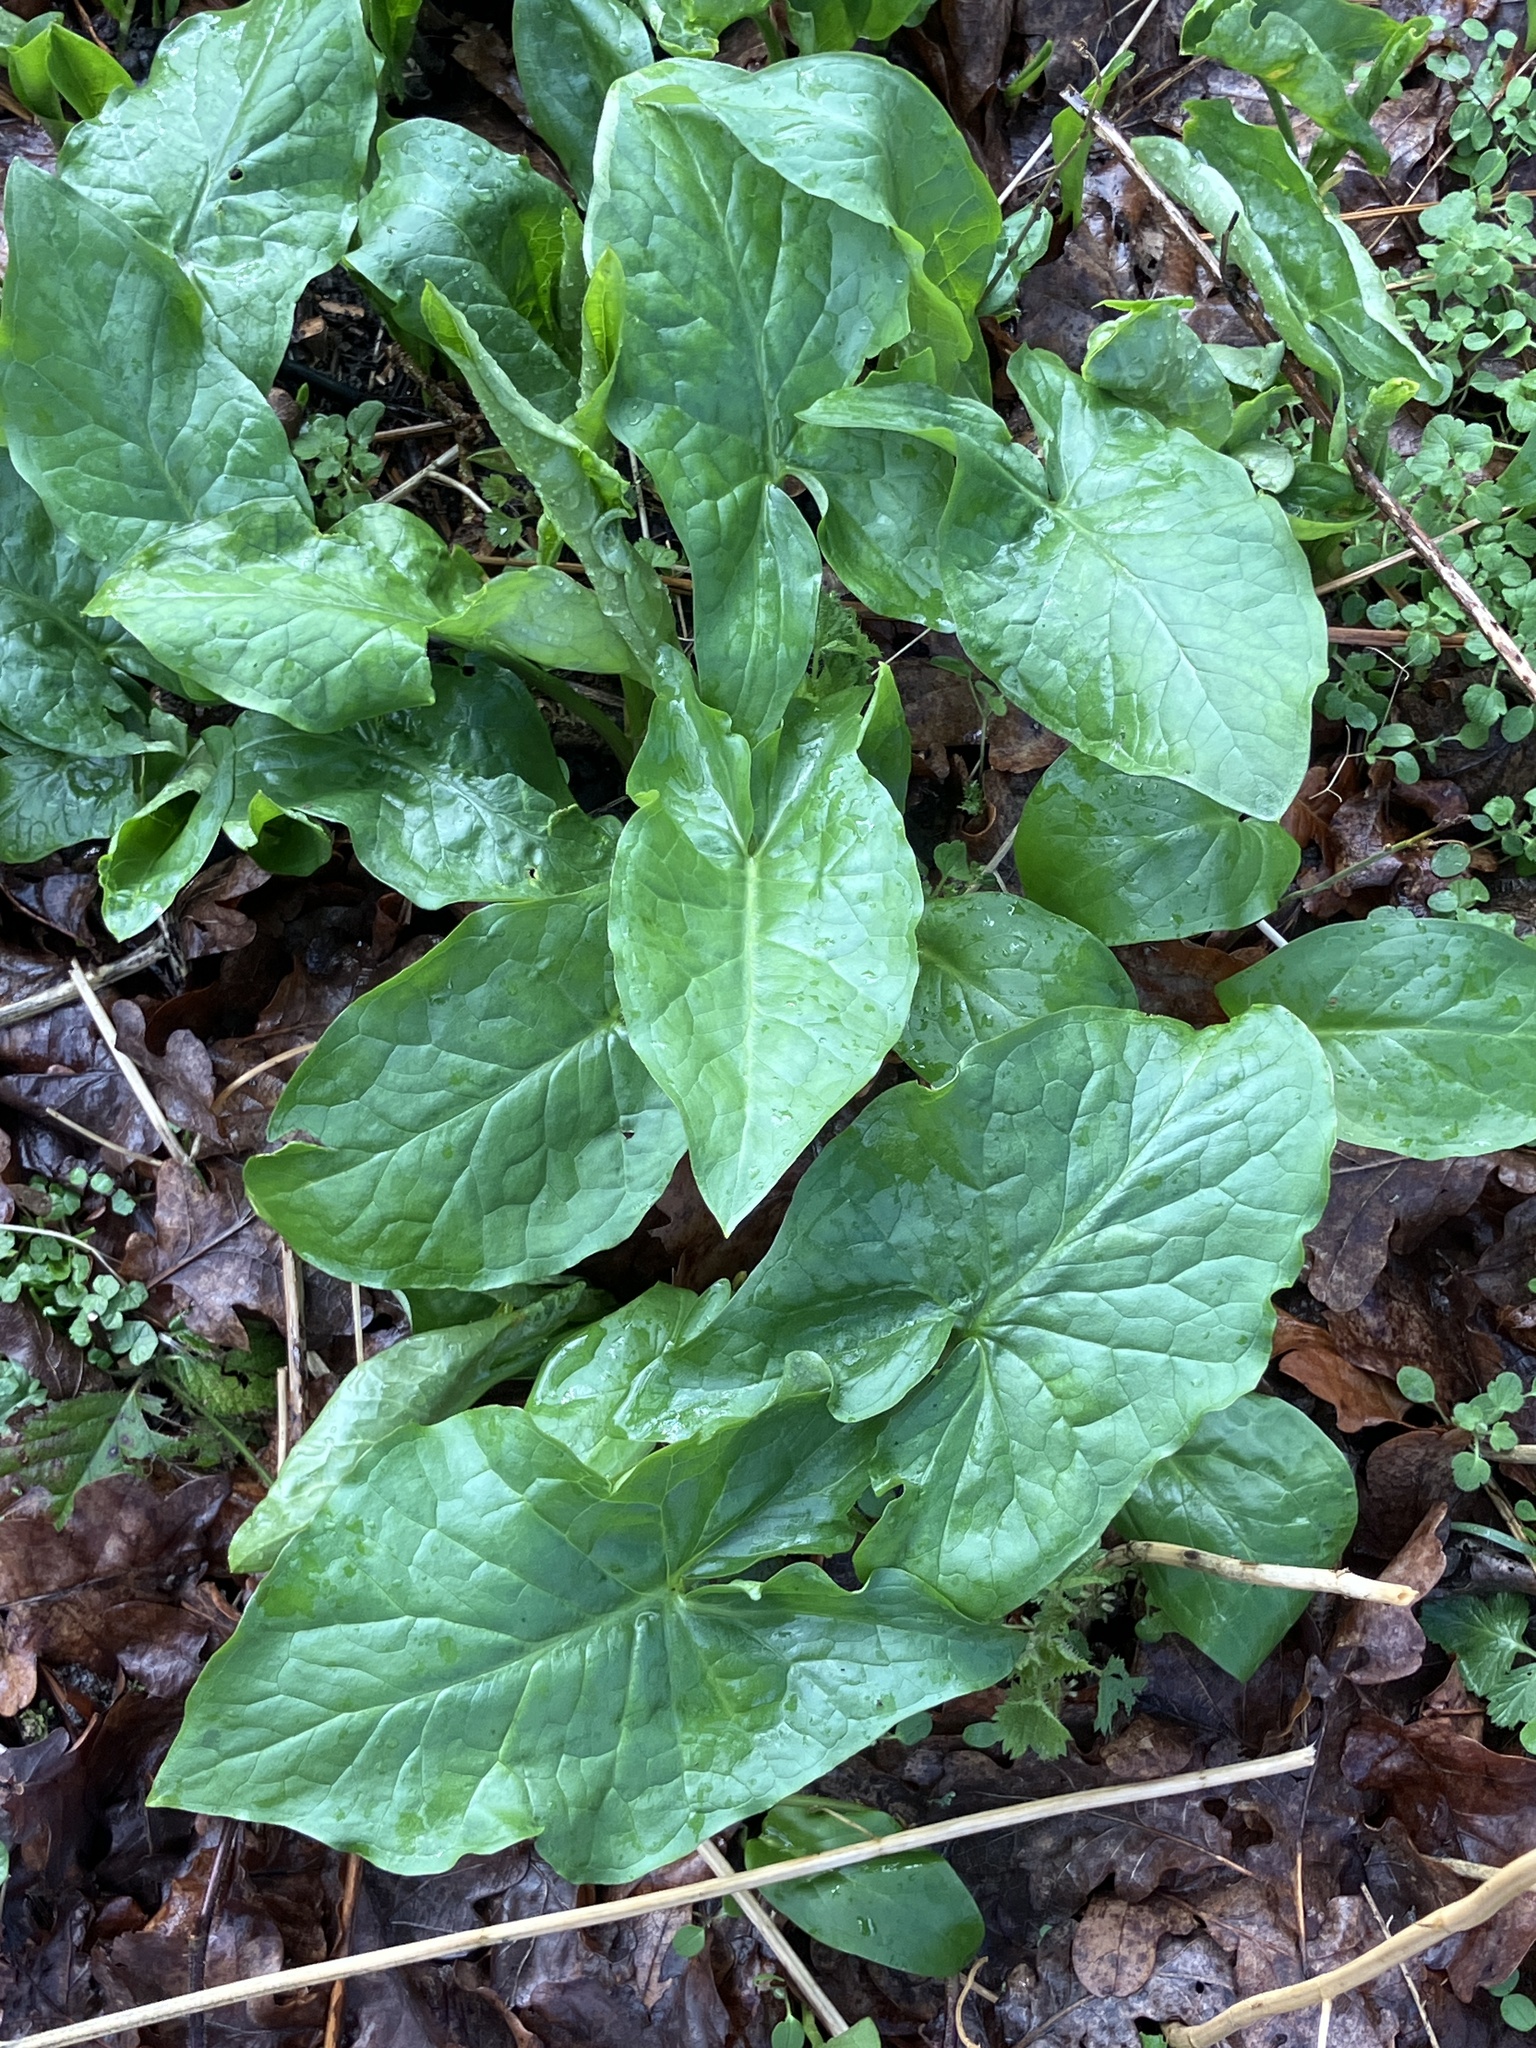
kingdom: Plantae
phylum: Tracheophyta
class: Liliopsida
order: Alismatales
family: Araceae
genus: Arum
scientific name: Arum maculatum
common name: Lords-and-ladies
